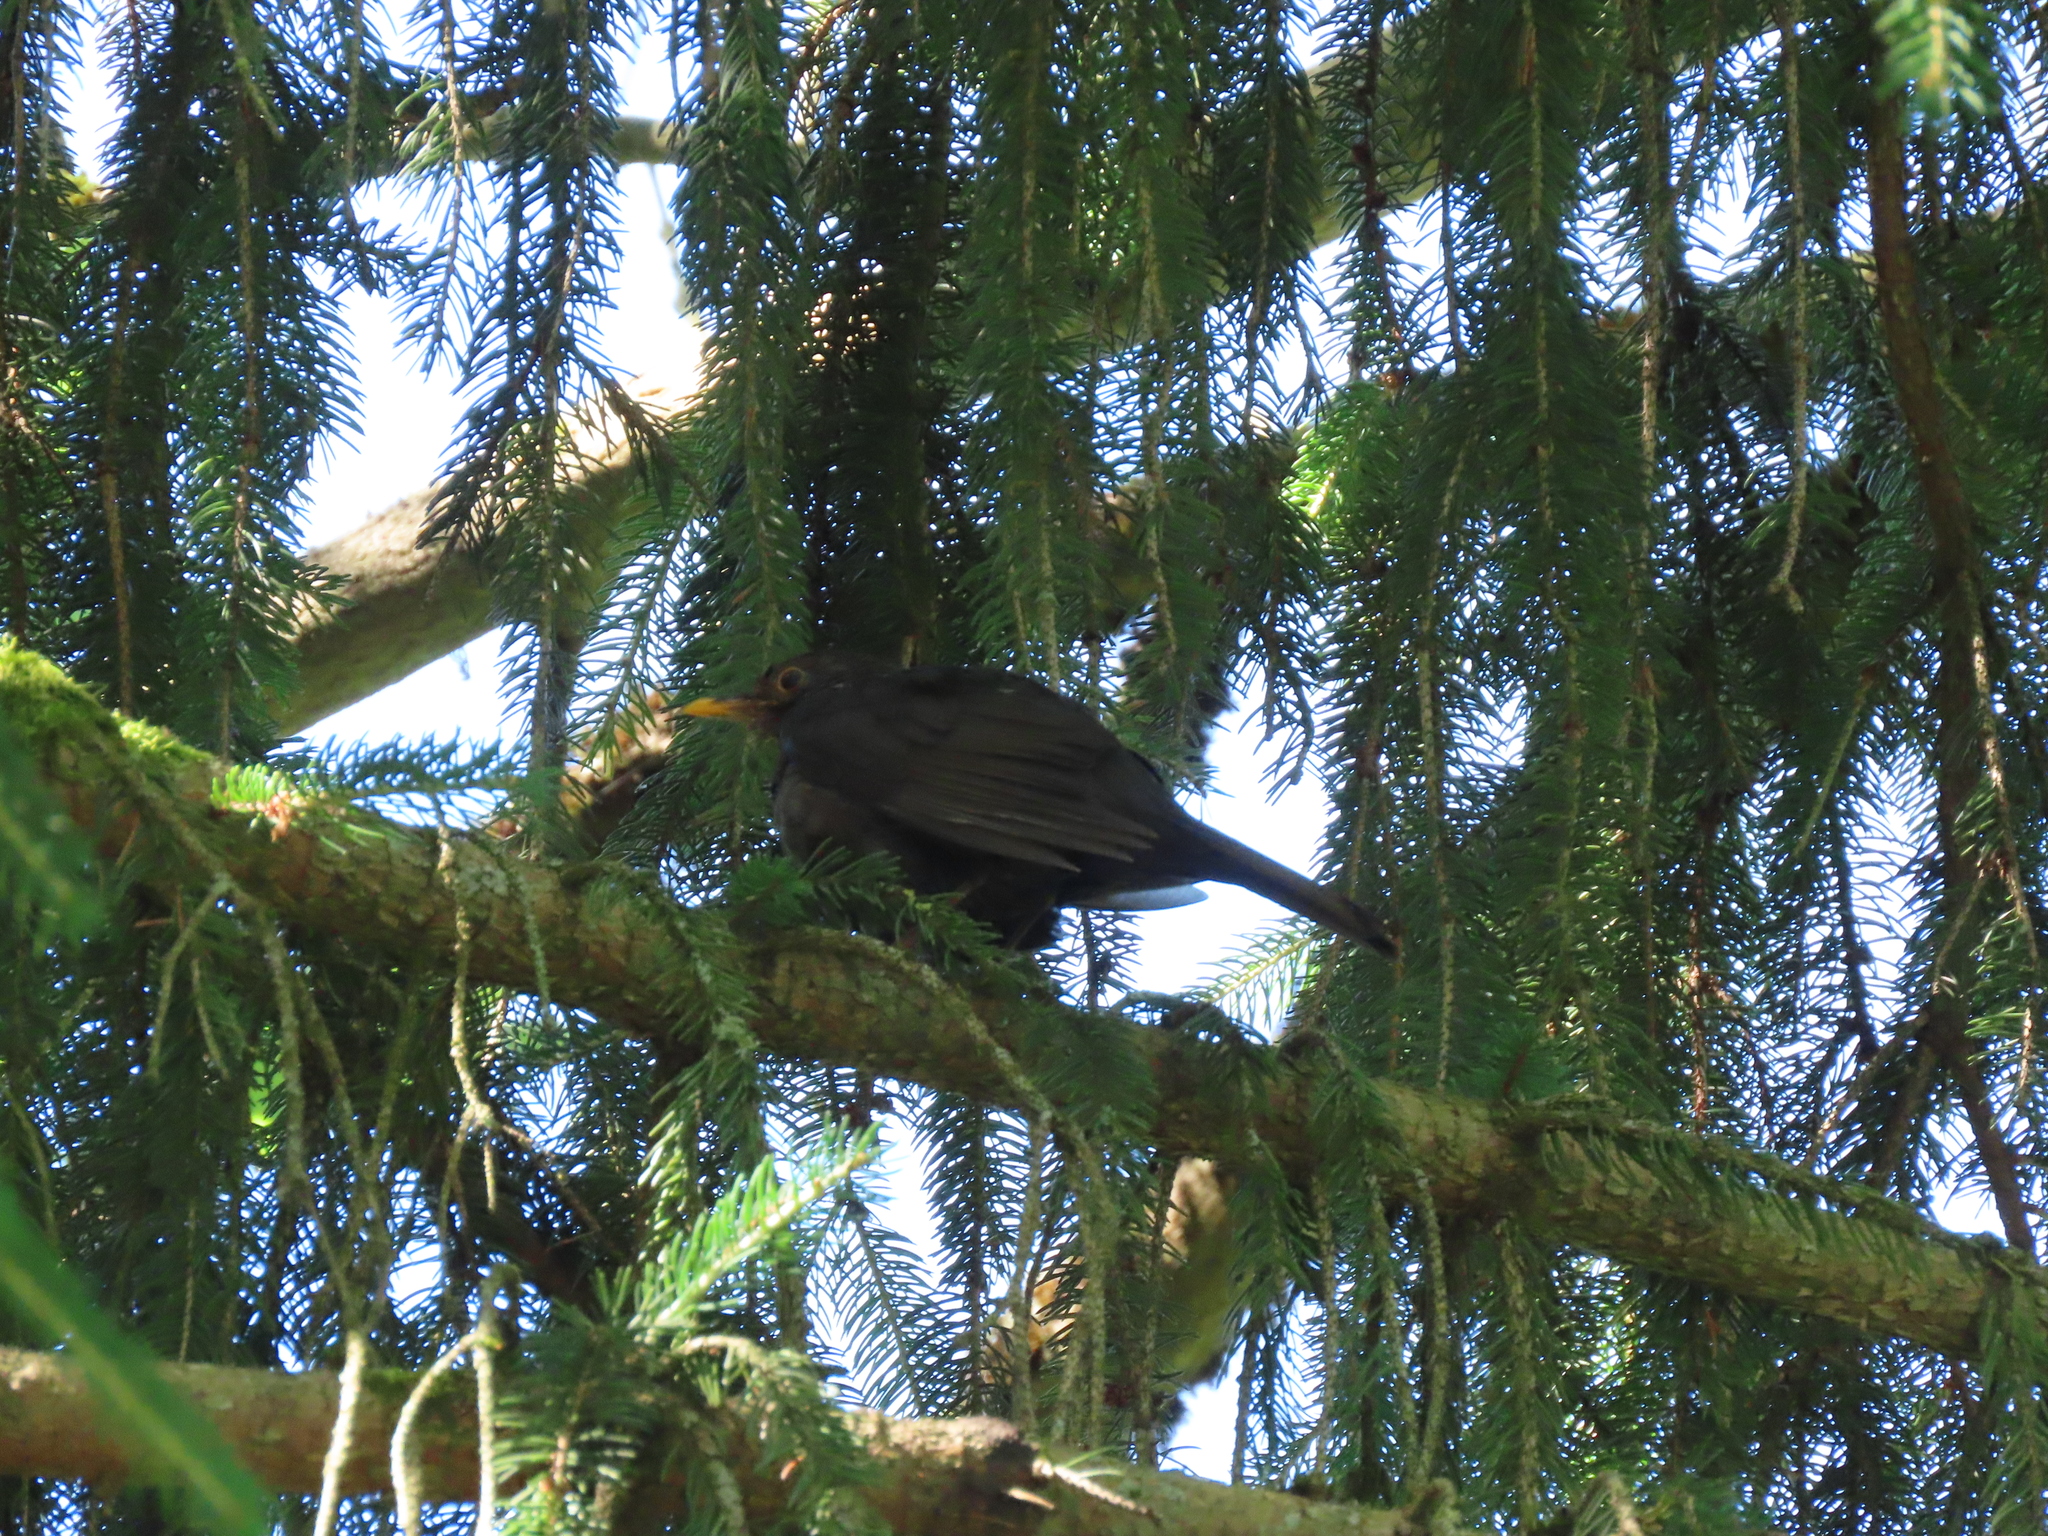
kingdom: Animalia
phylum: Chordata
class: Aves
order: Passeriformes
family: Turdidae
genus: Turdus
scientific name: Turdus merula
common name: Common blackbird
